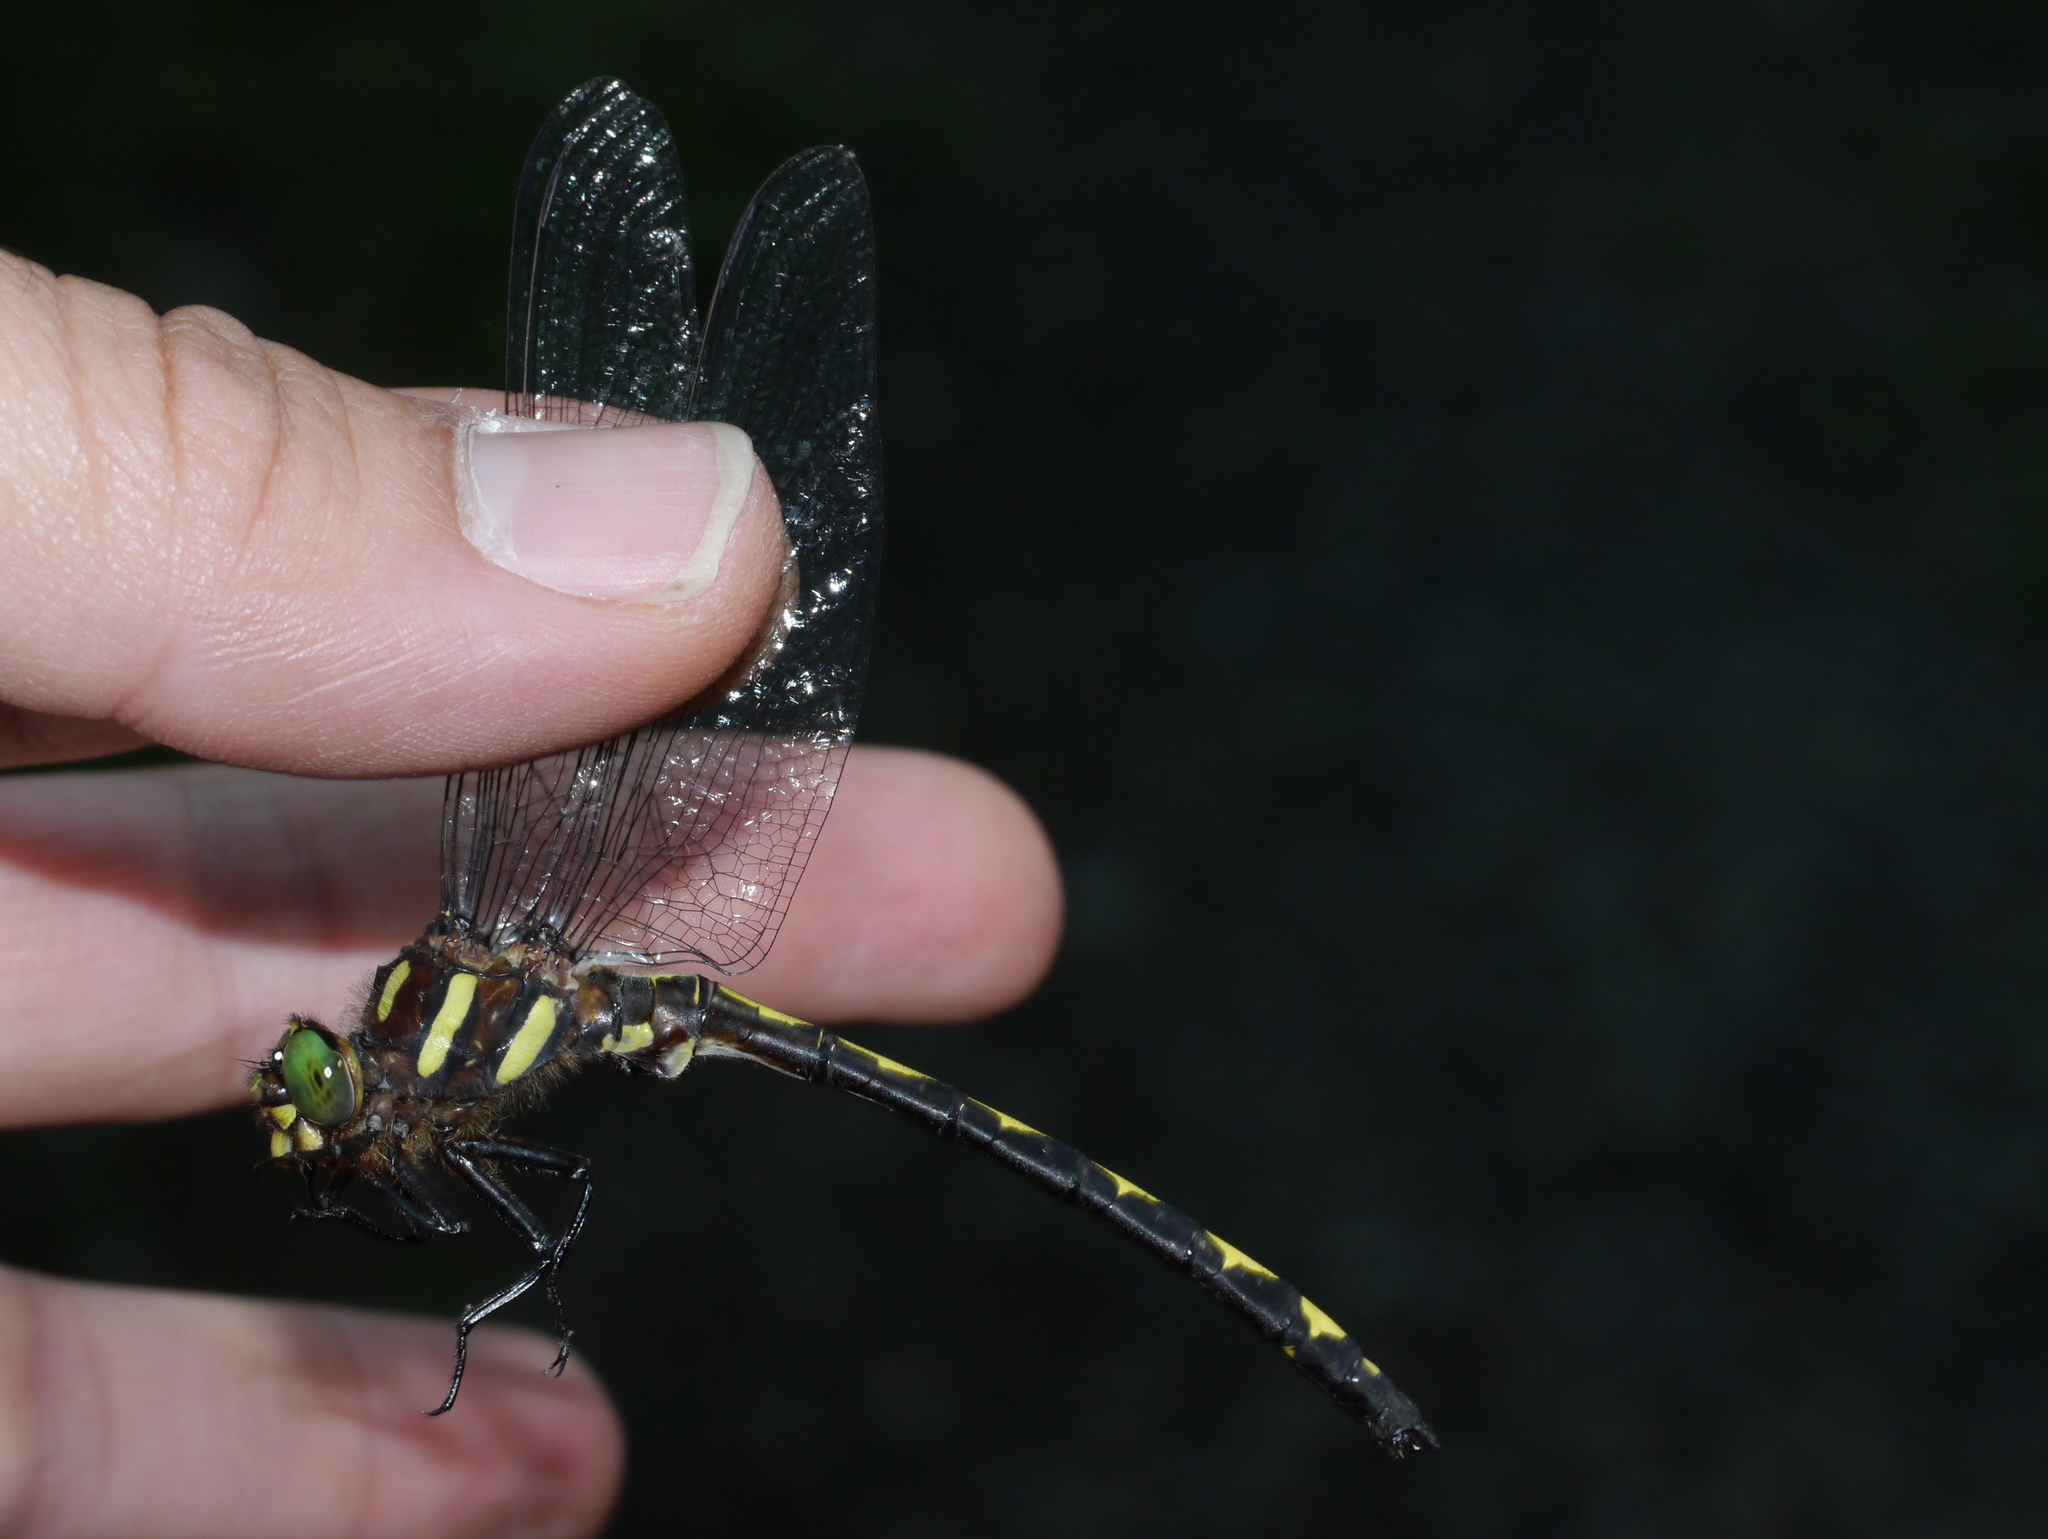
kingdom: Animalia
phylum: Arthropoda
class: Insecta
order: Odonata
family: Cordulegastridae
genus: Cordulegaster
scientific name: Cordulegaster obliqua
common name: Arrowhead spiketail
